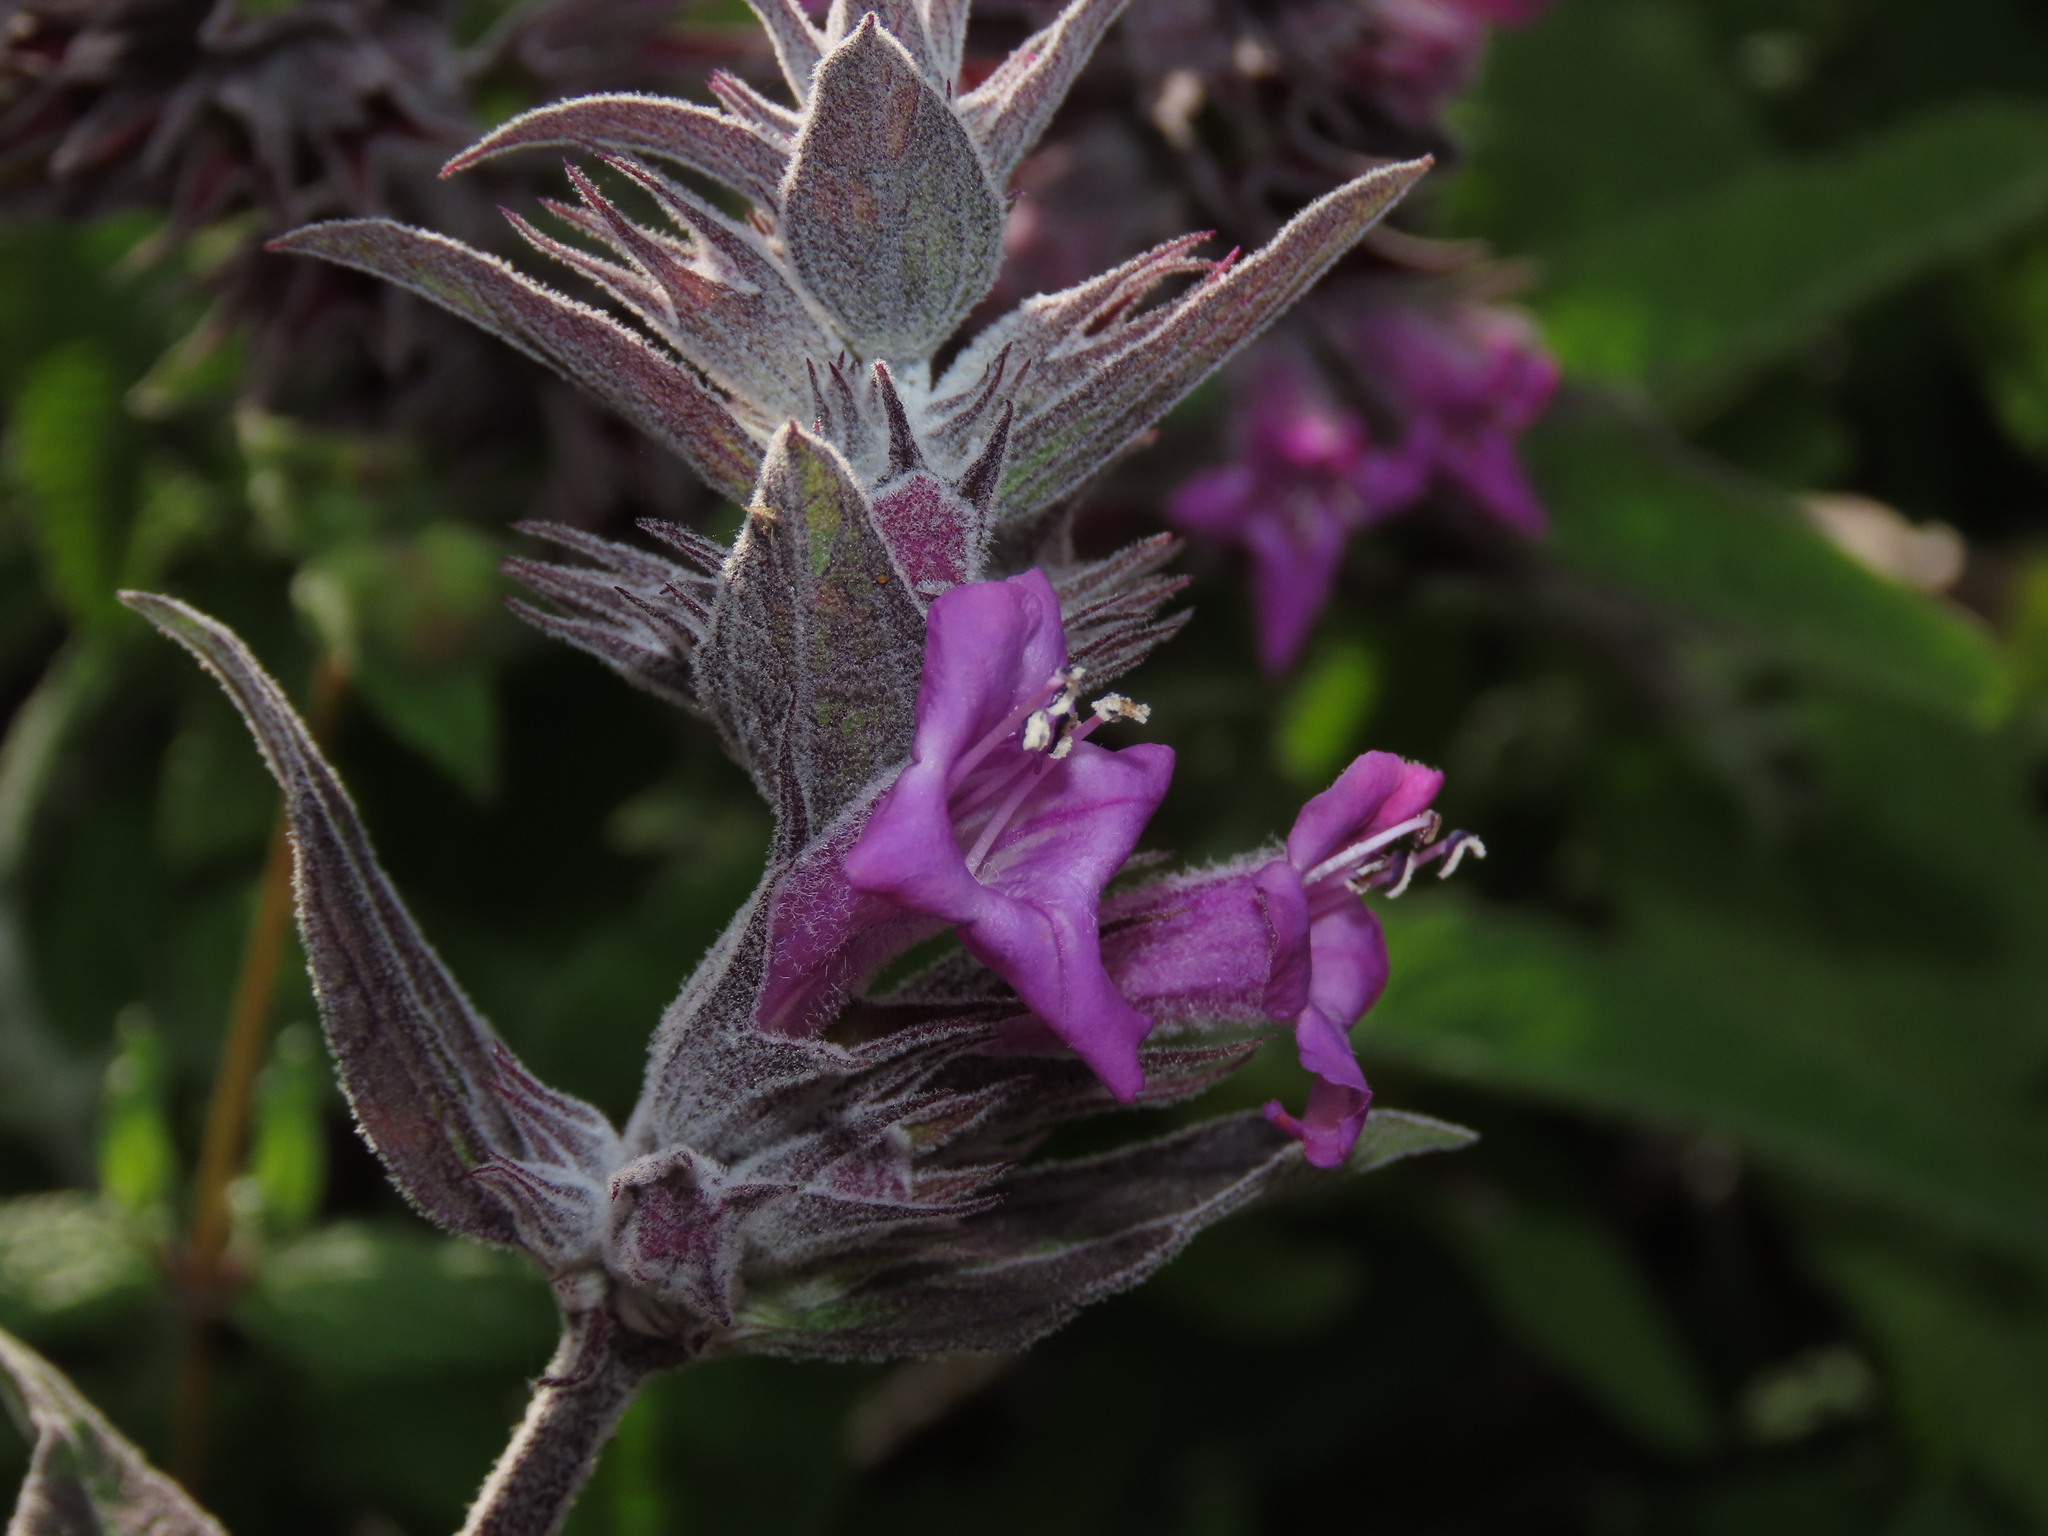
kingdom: Plantae
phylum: Tracheophyta
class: Magnoliopsida
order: Lamiales
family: Lamiaceae
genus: Lepechinia
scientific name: Lepechinia salviae
